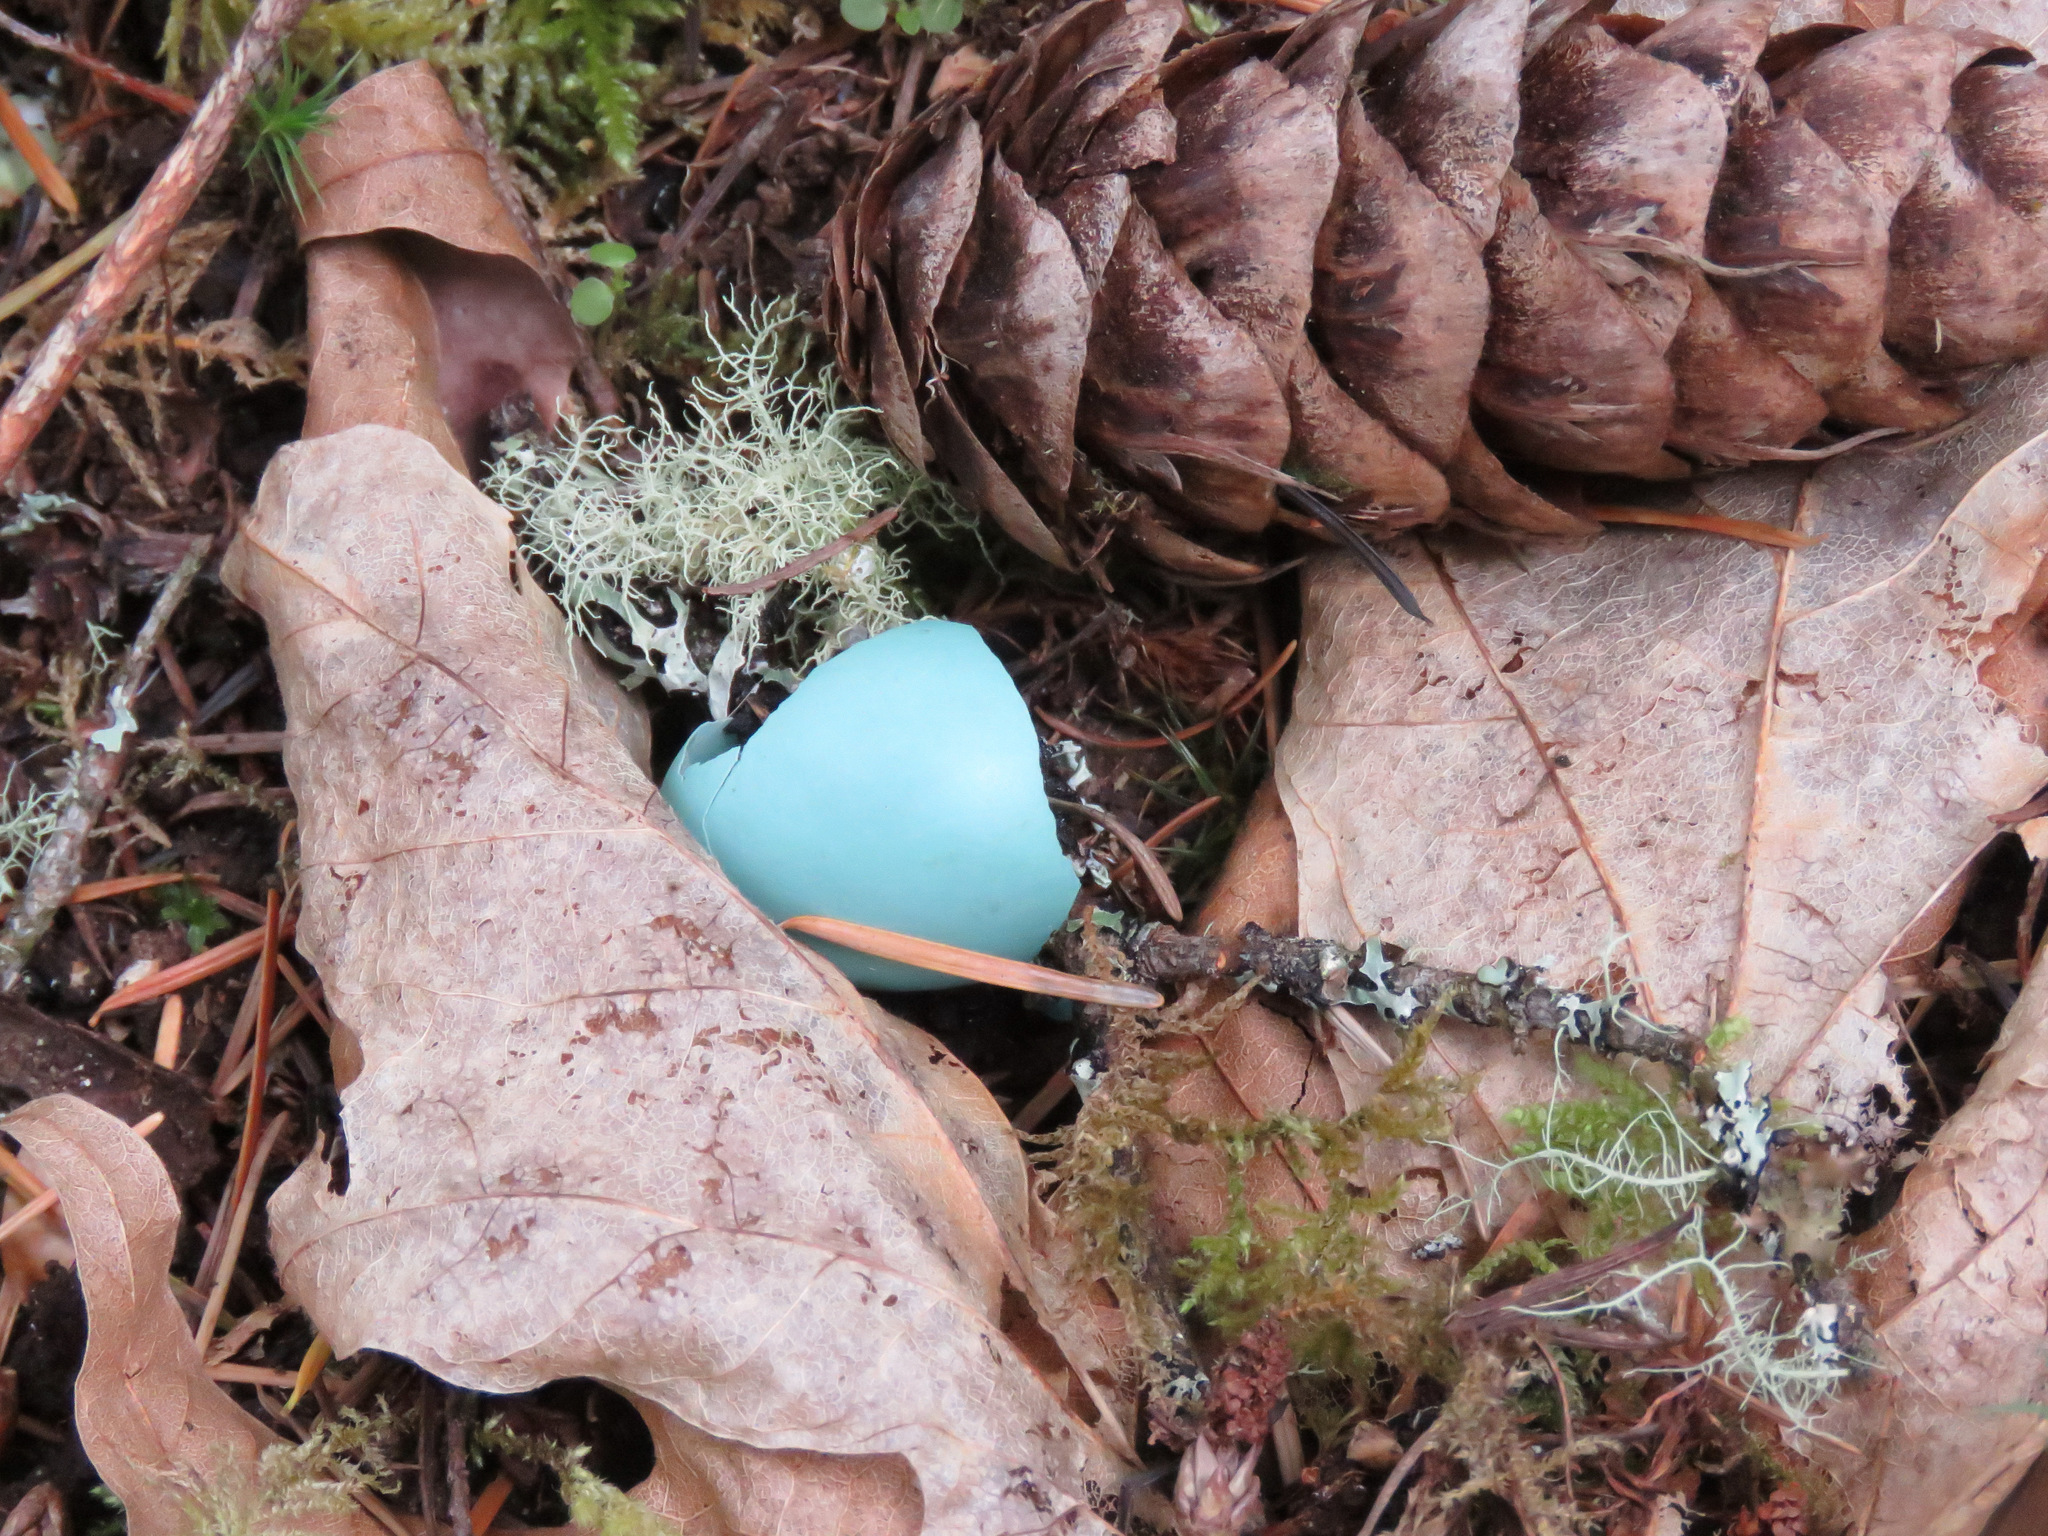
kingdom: Animalia
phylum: Chordata
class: Aves
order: Passeriformes
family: Turdidae
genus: Turdus
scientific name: Turdus migratorius
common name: American robin
